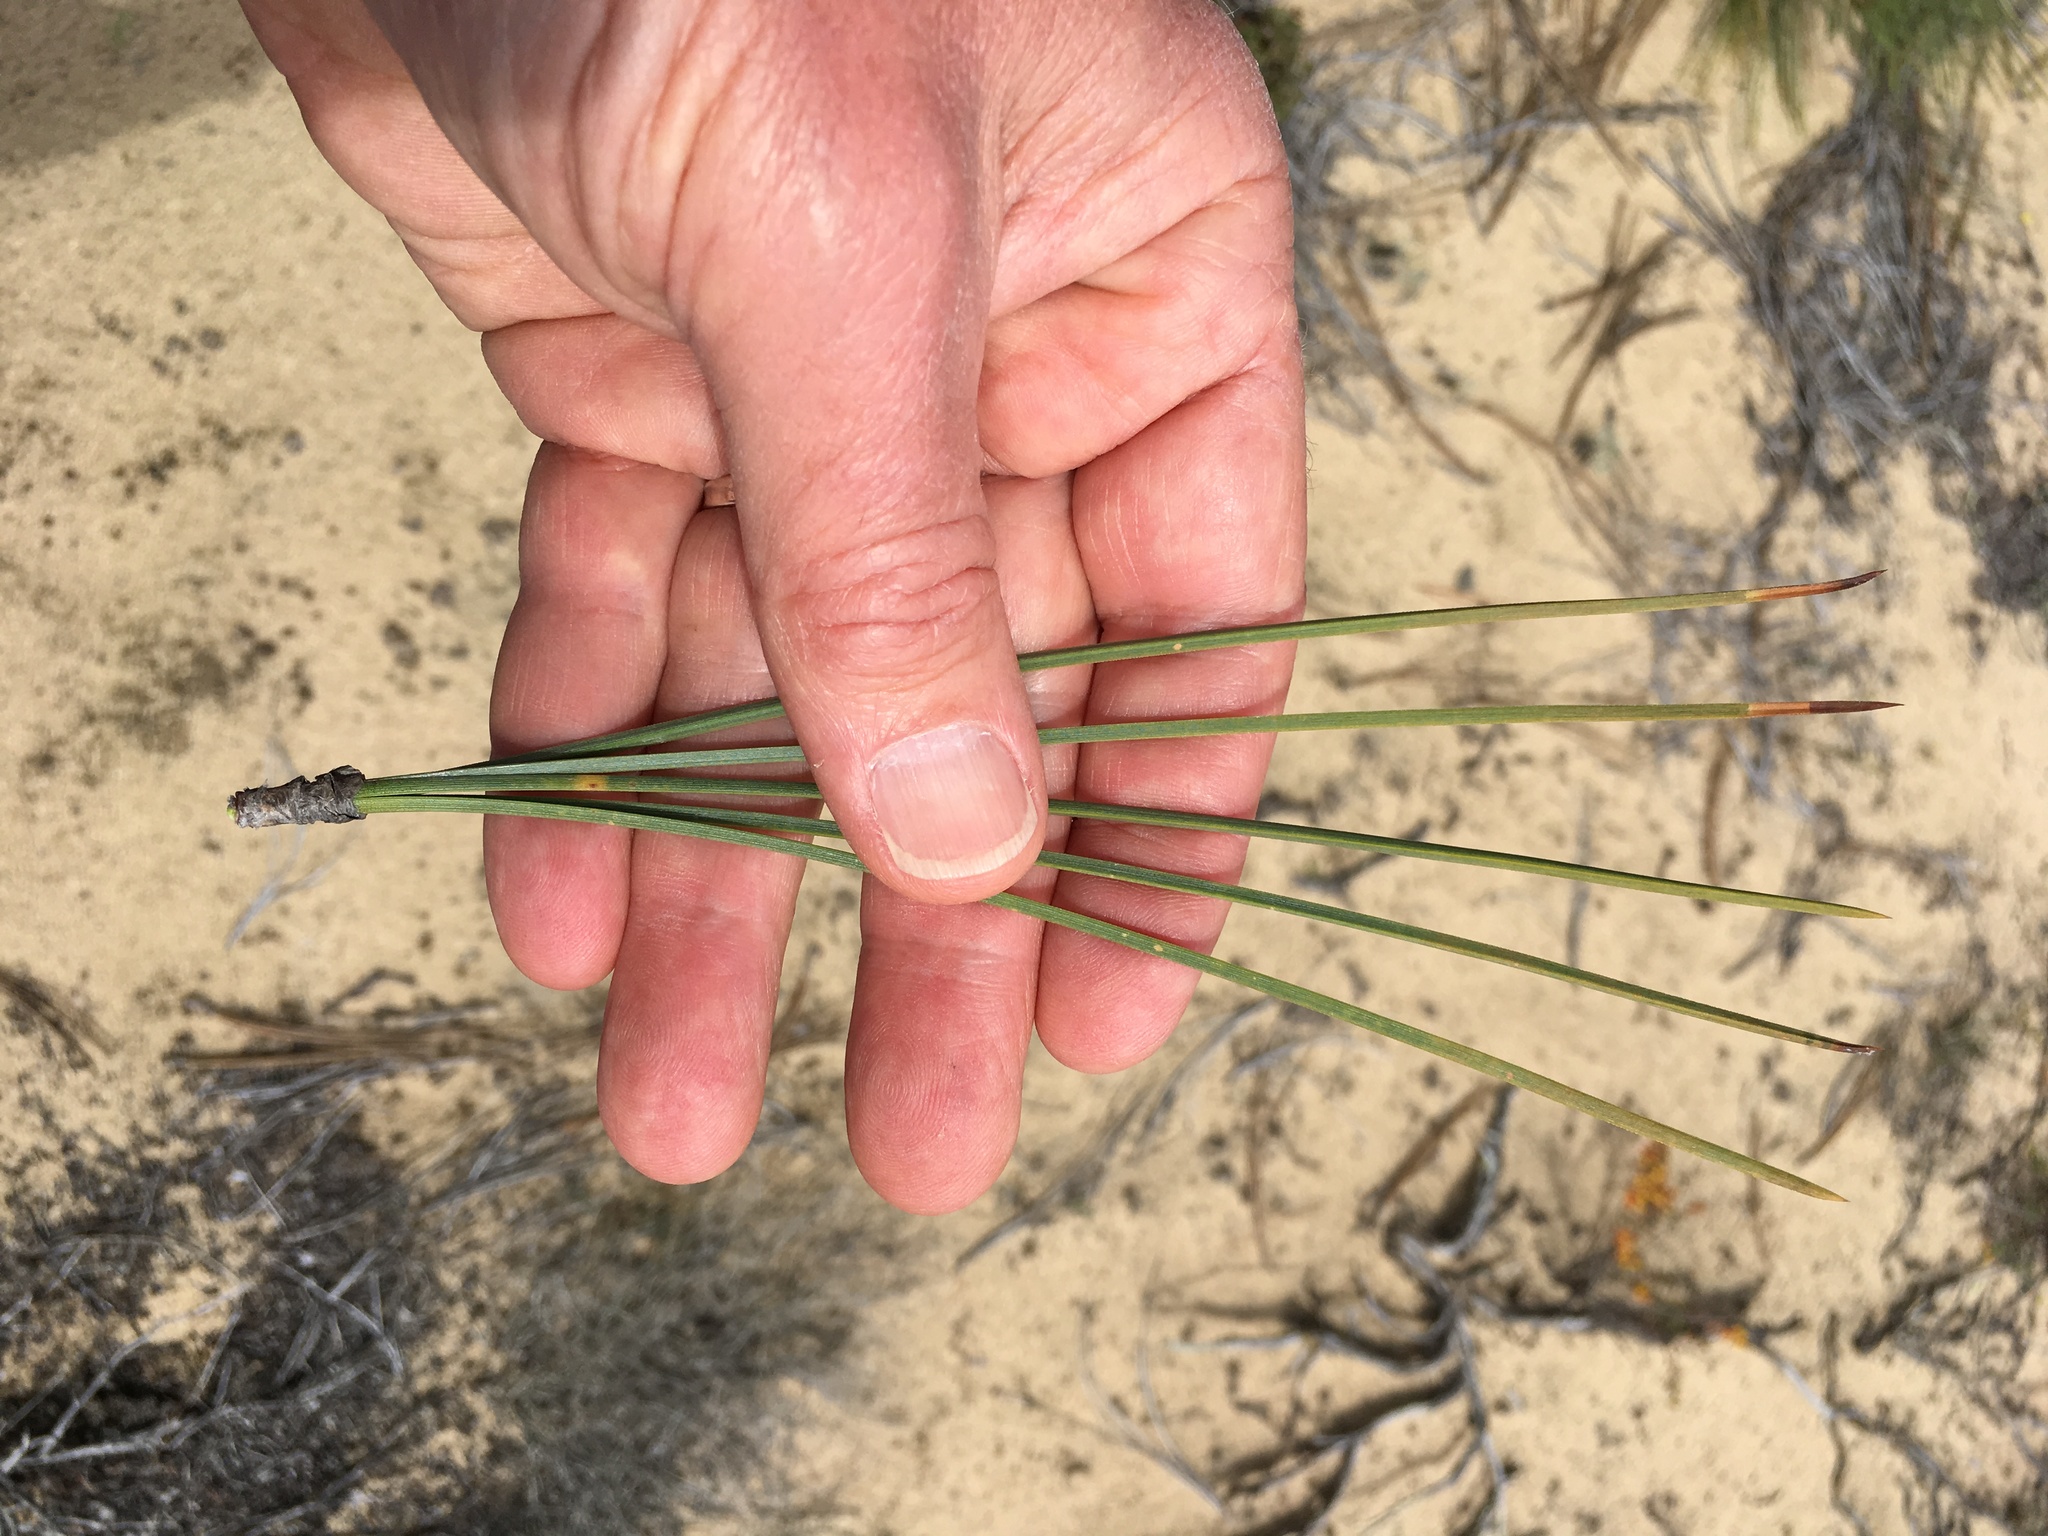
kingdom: Plantae
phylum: Tracheophyta
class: Pinopsida
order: Pinales
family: Pinaceae
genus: Pinus
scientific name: Pinus torreyana
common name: Torrey pine
